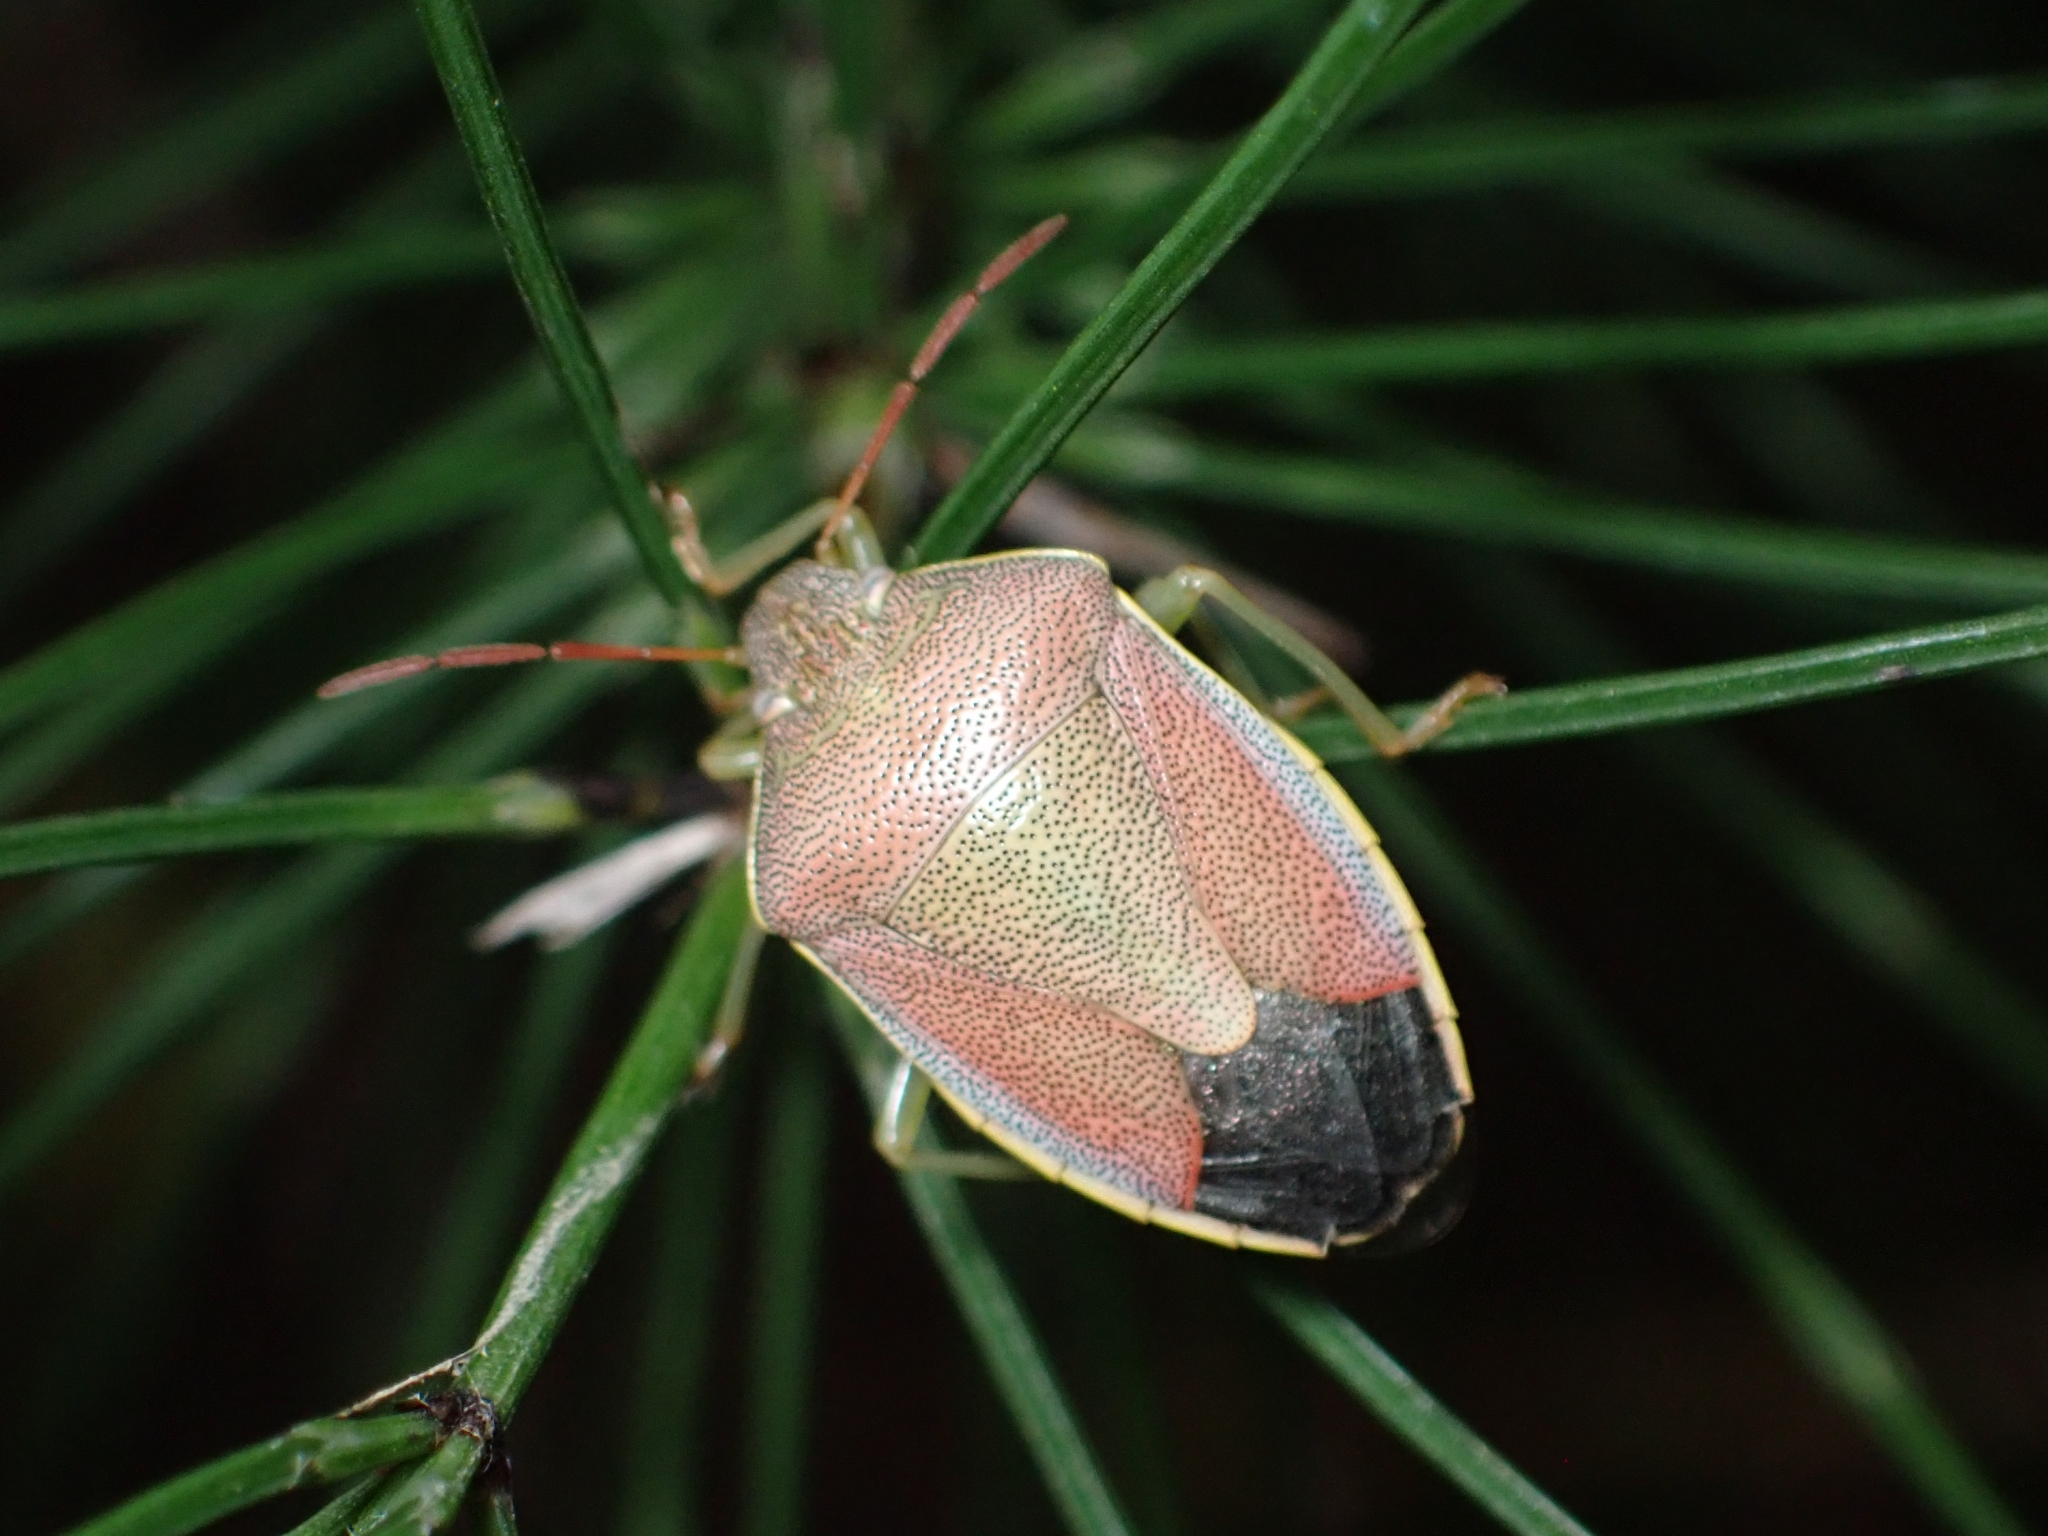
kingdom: Animalia
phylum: Arthropoda
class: Insecta
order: Hemiptera
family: Pentatomidae
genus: Piezodorus
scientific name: Piezodorus lituratus
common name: Stink bug
